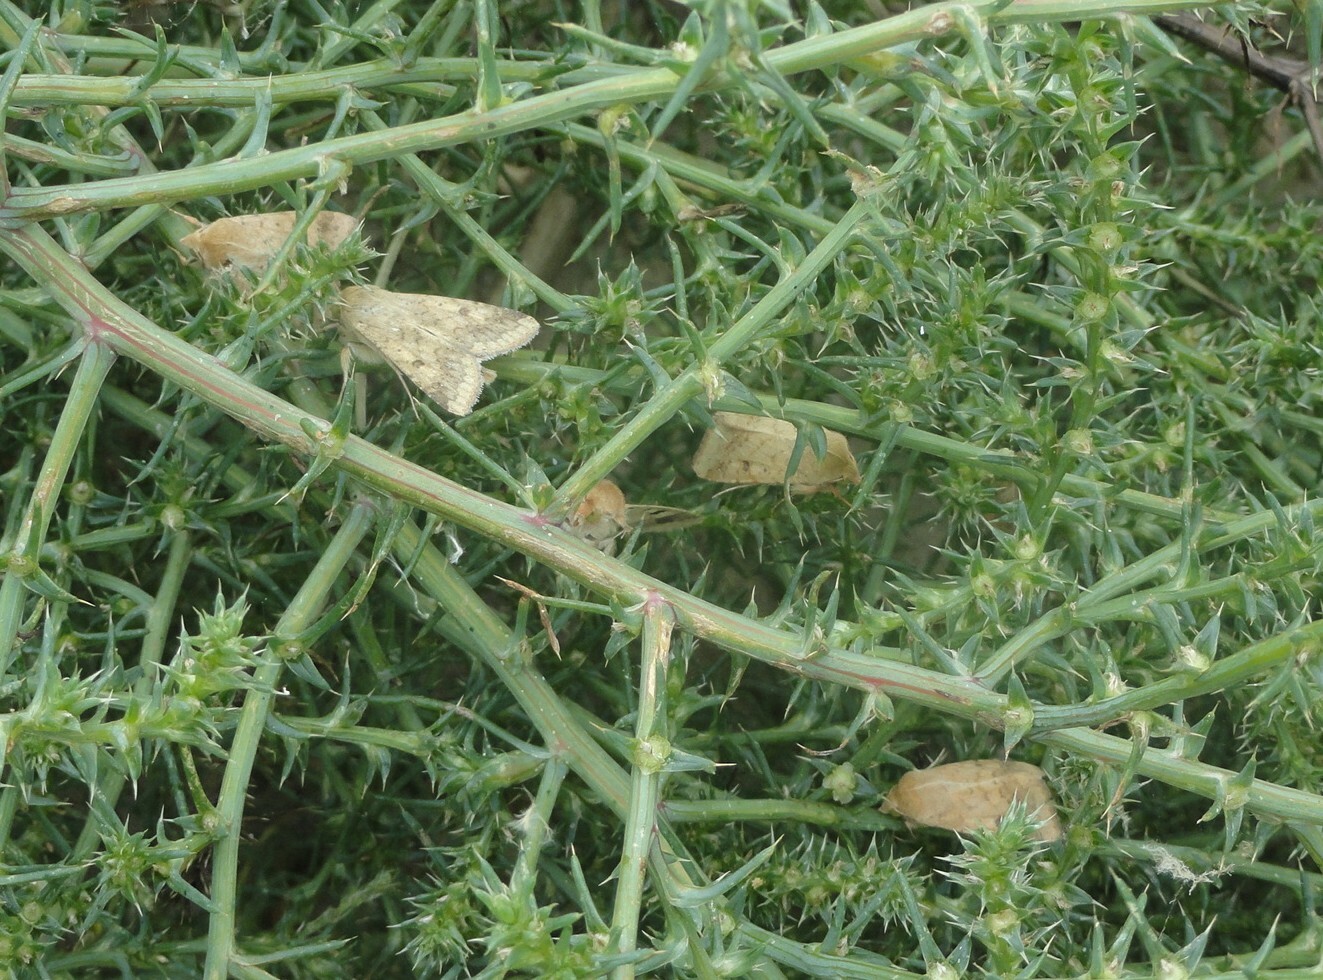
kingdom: Animalia
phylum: Arthropoda
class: Insecta
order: Lepidoptera
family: Noctuidae
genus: Helicoverpa
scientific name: Helicoverpa armigera
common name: Cotton bollworm
